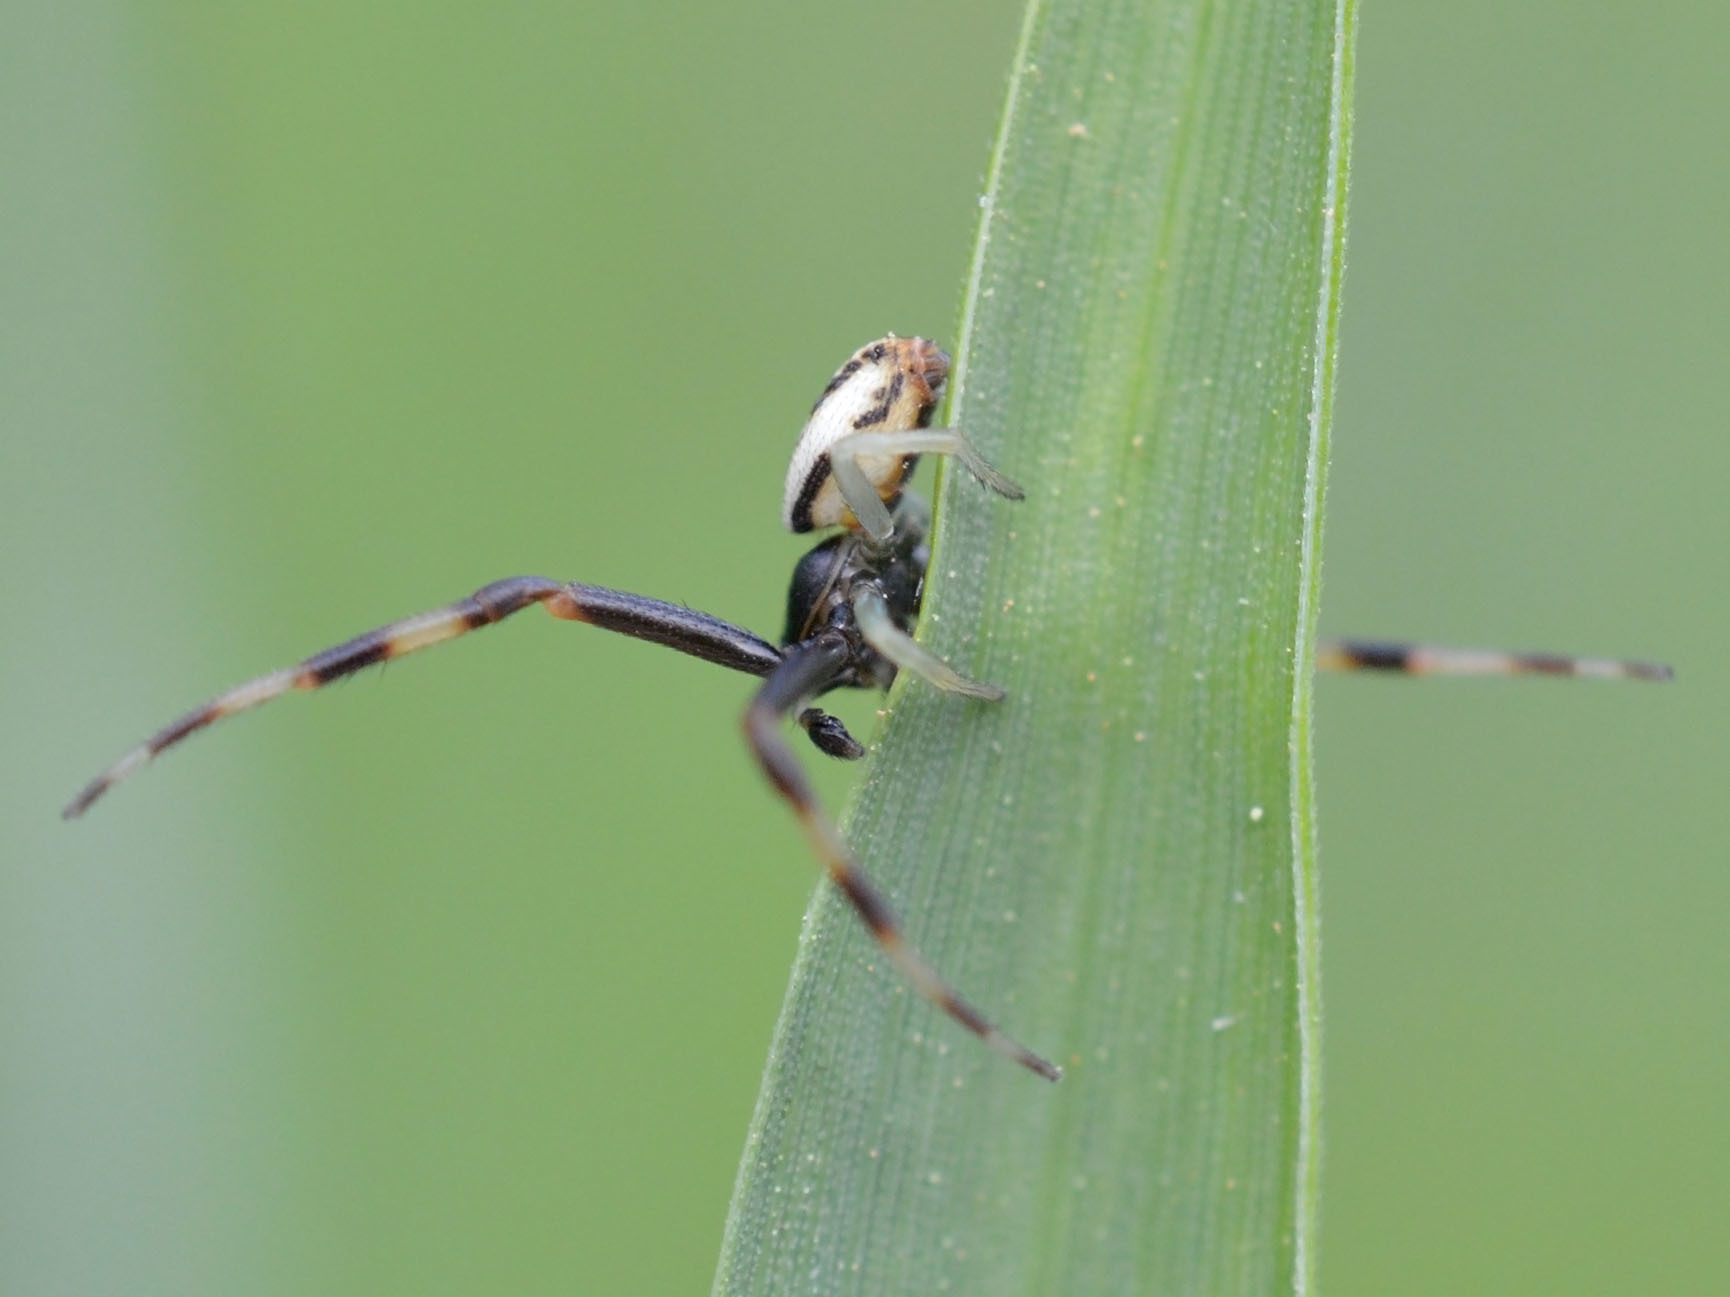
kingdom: Animalia
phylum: Arthropoda
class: Arachnida
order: Araneae
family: Thomisidae
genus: Misumena
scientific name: Misumena vatia
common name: Goldenrod crab spider
